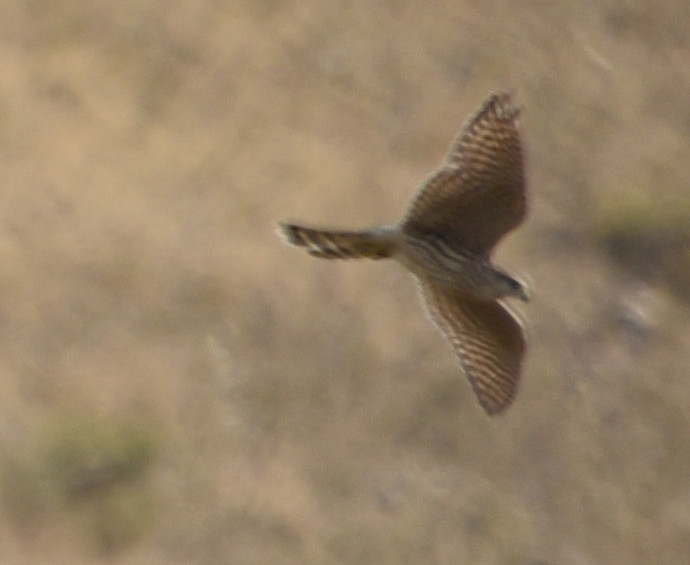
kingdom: Animalia
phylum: Chordata
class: Aves
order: Falconiformes
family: Falconidae
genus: Falco
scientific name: Falco columbarius
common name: Merlin
